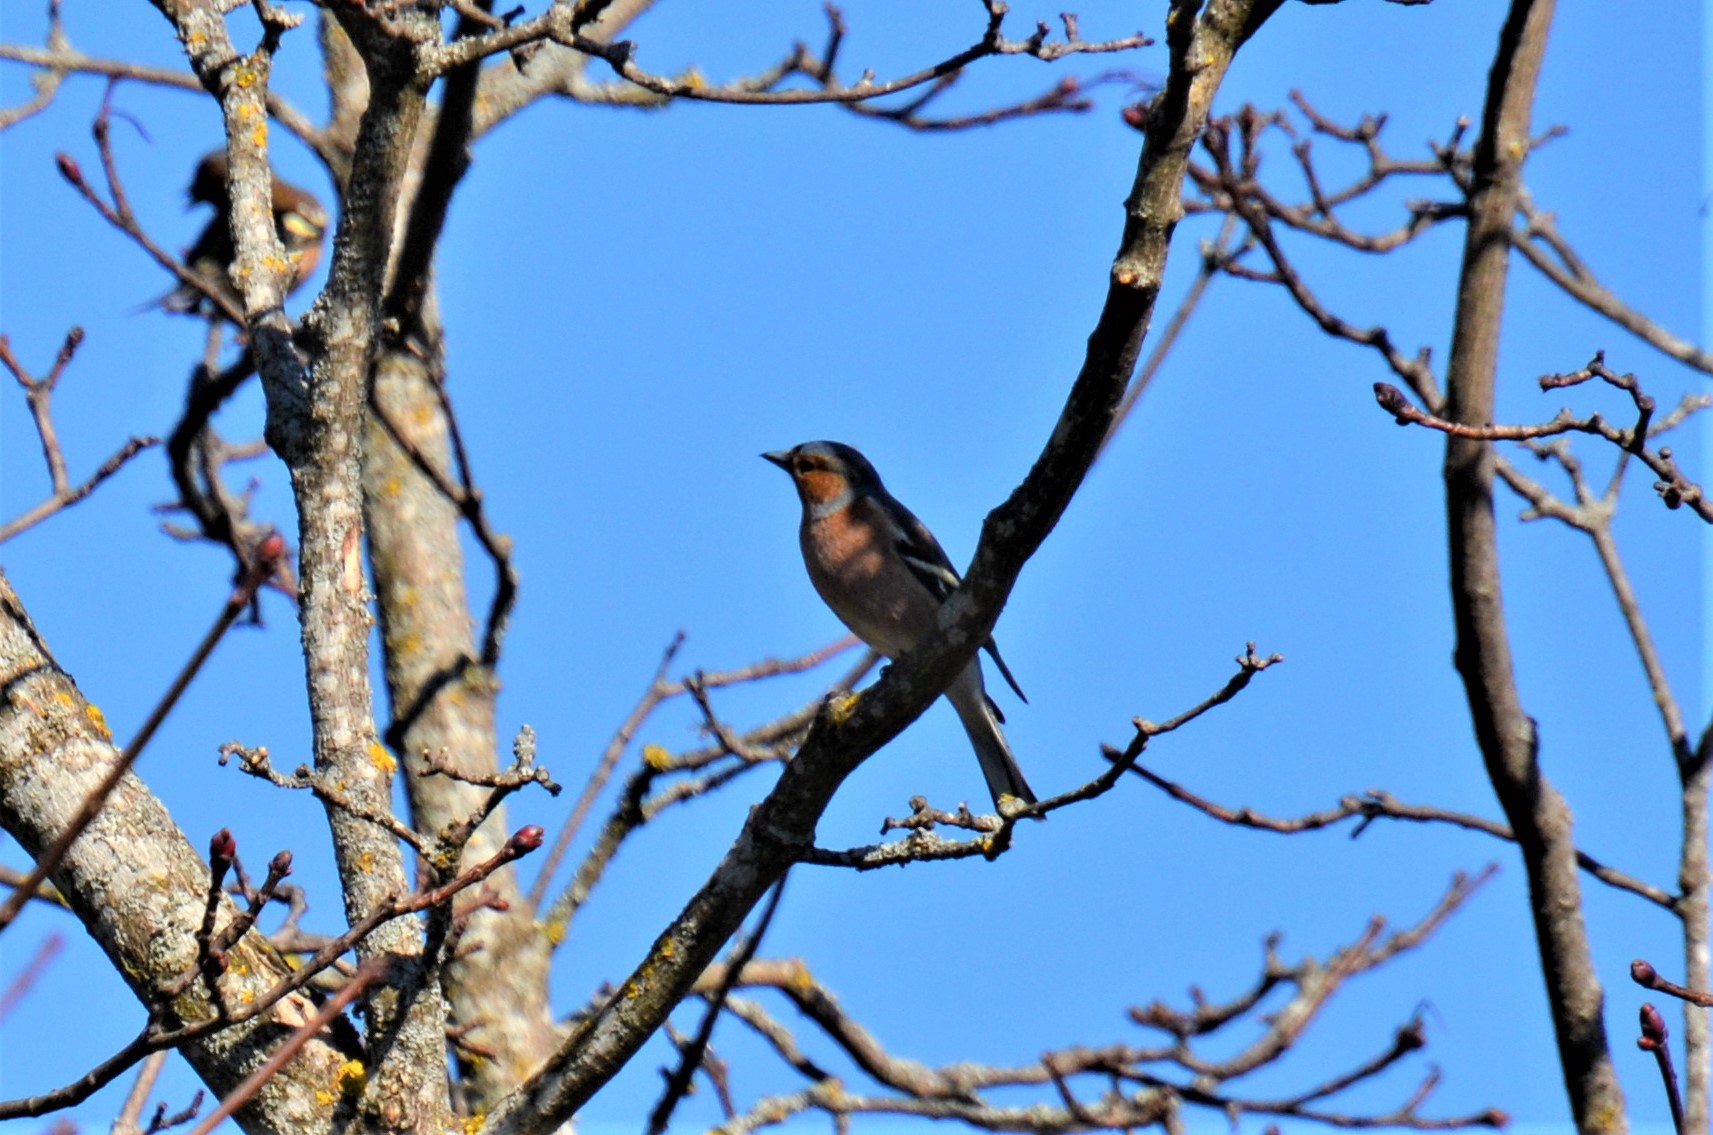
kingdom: Animalia
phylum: Chordata
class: Aves
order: Passeriformes
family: Fringillidae
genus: Fringilla
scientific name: Fringilla coelebs
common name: Common chaffinch
